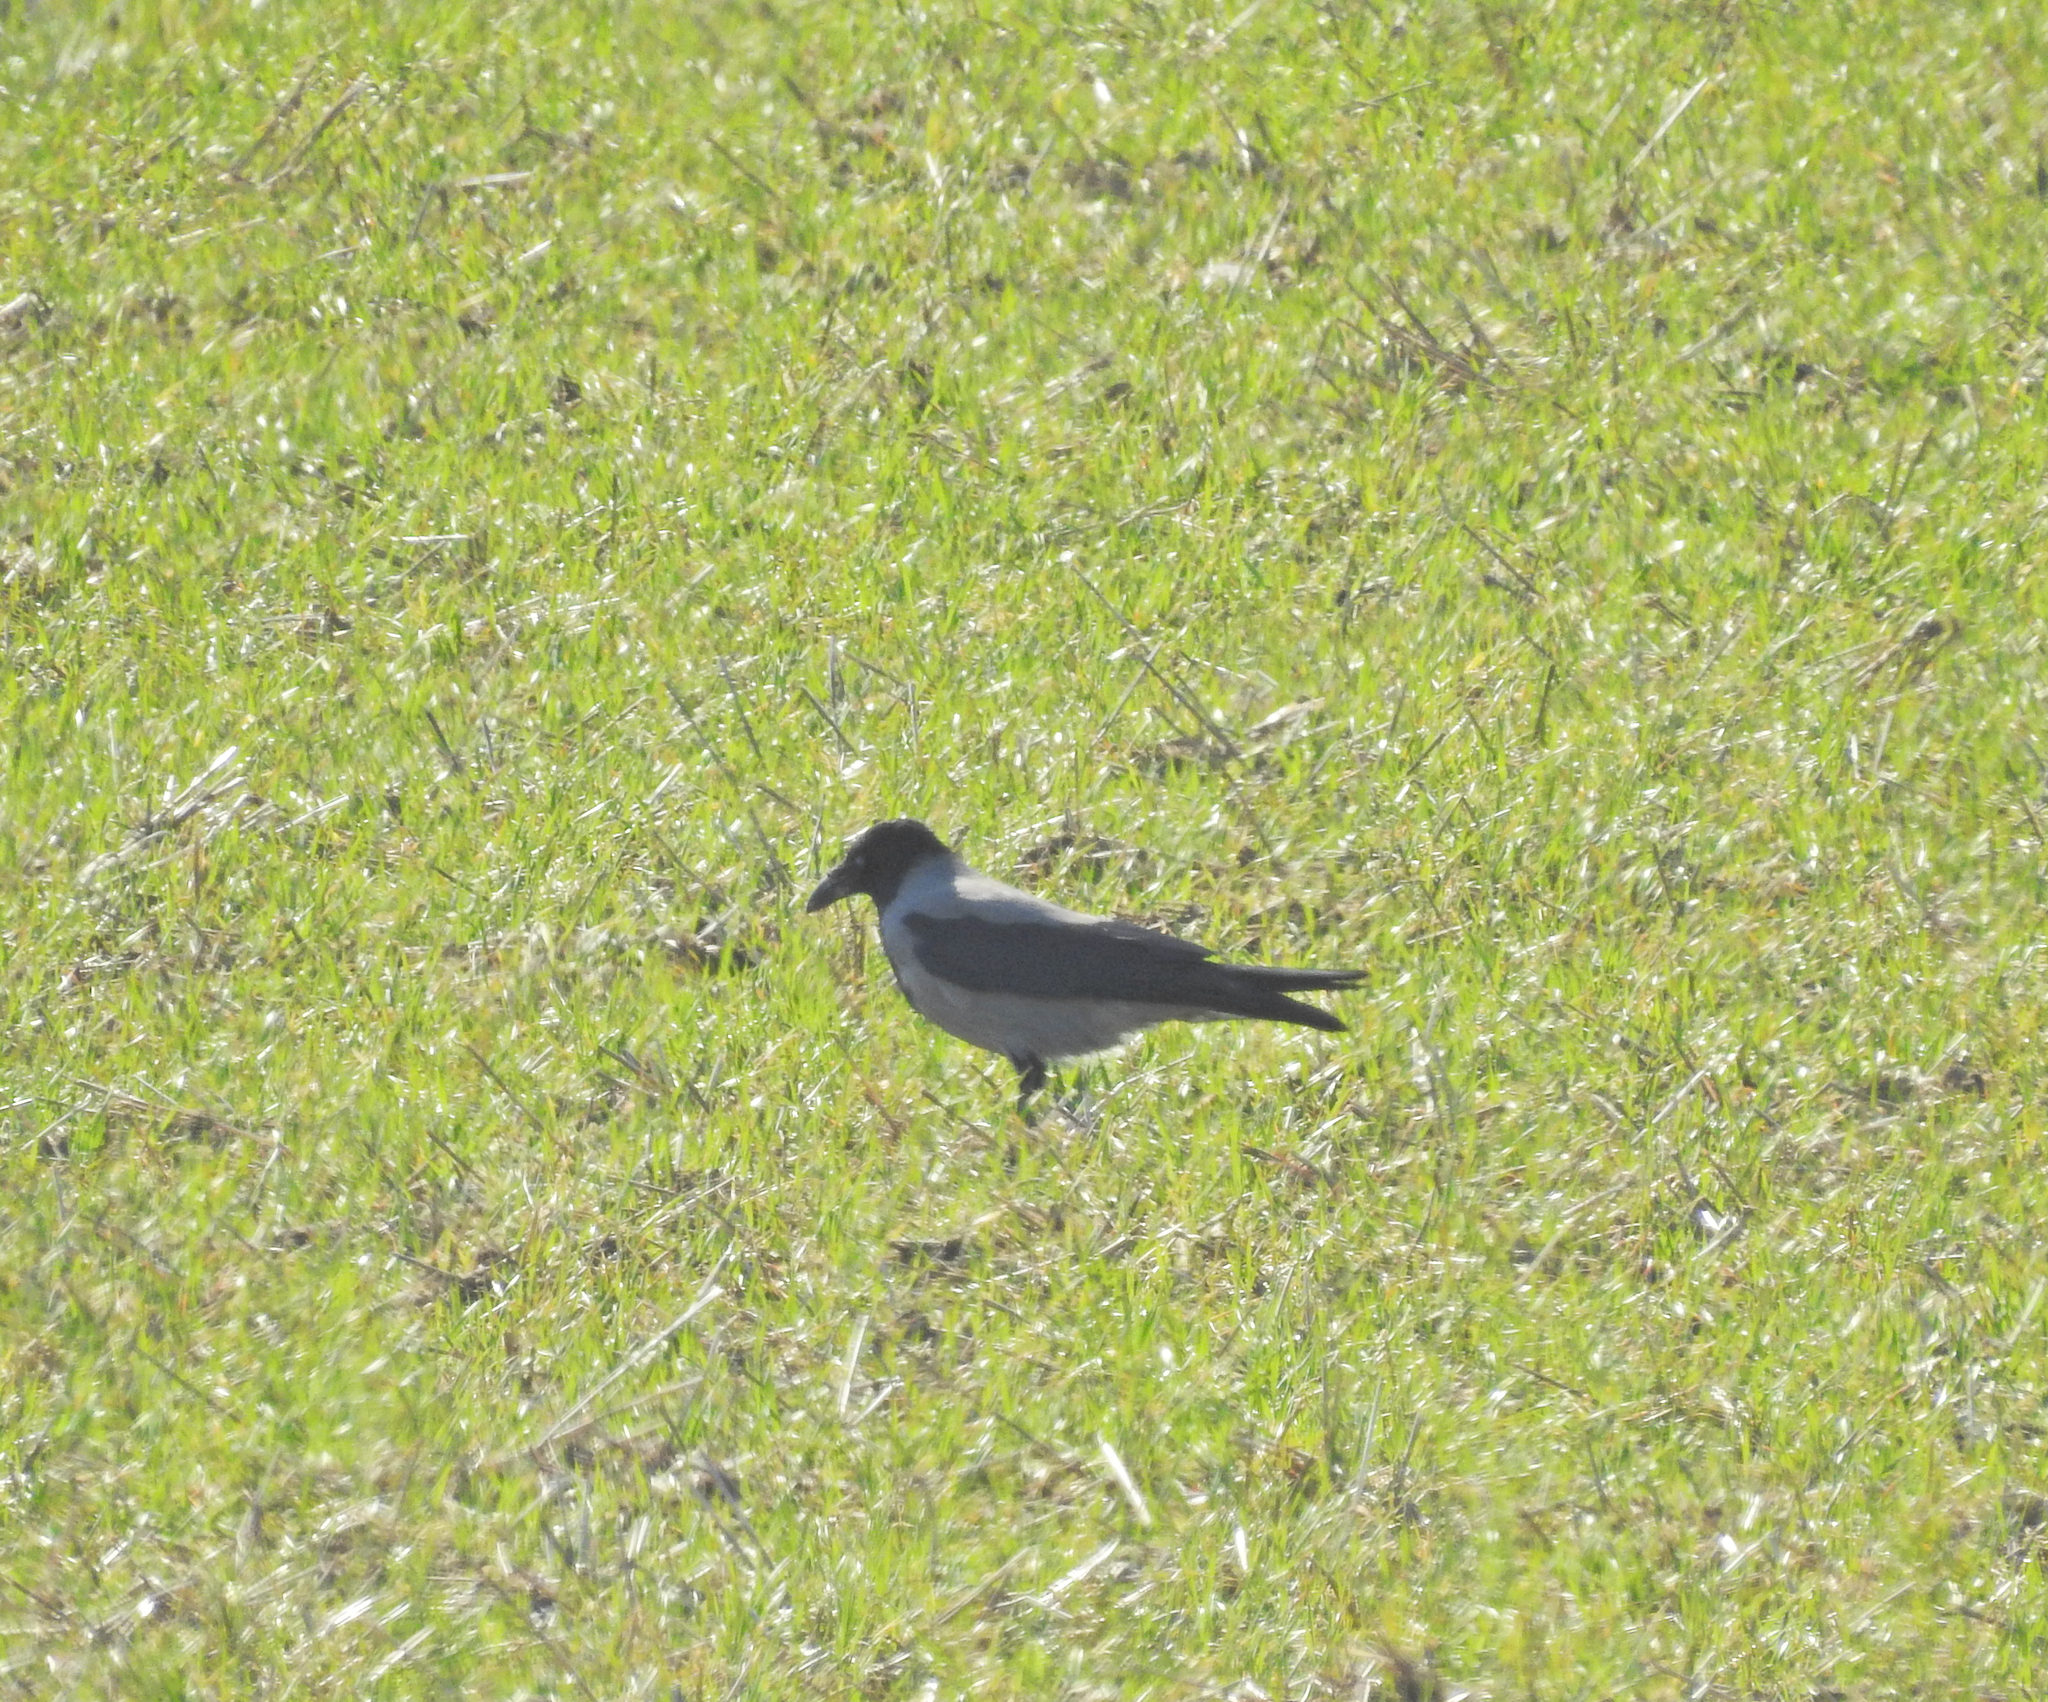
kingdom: Animalia
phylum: Chordata
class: Aves
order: Passeriformes
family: Corvidae
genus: Corvus
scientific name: Corvus cornix
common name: Hooded crow
